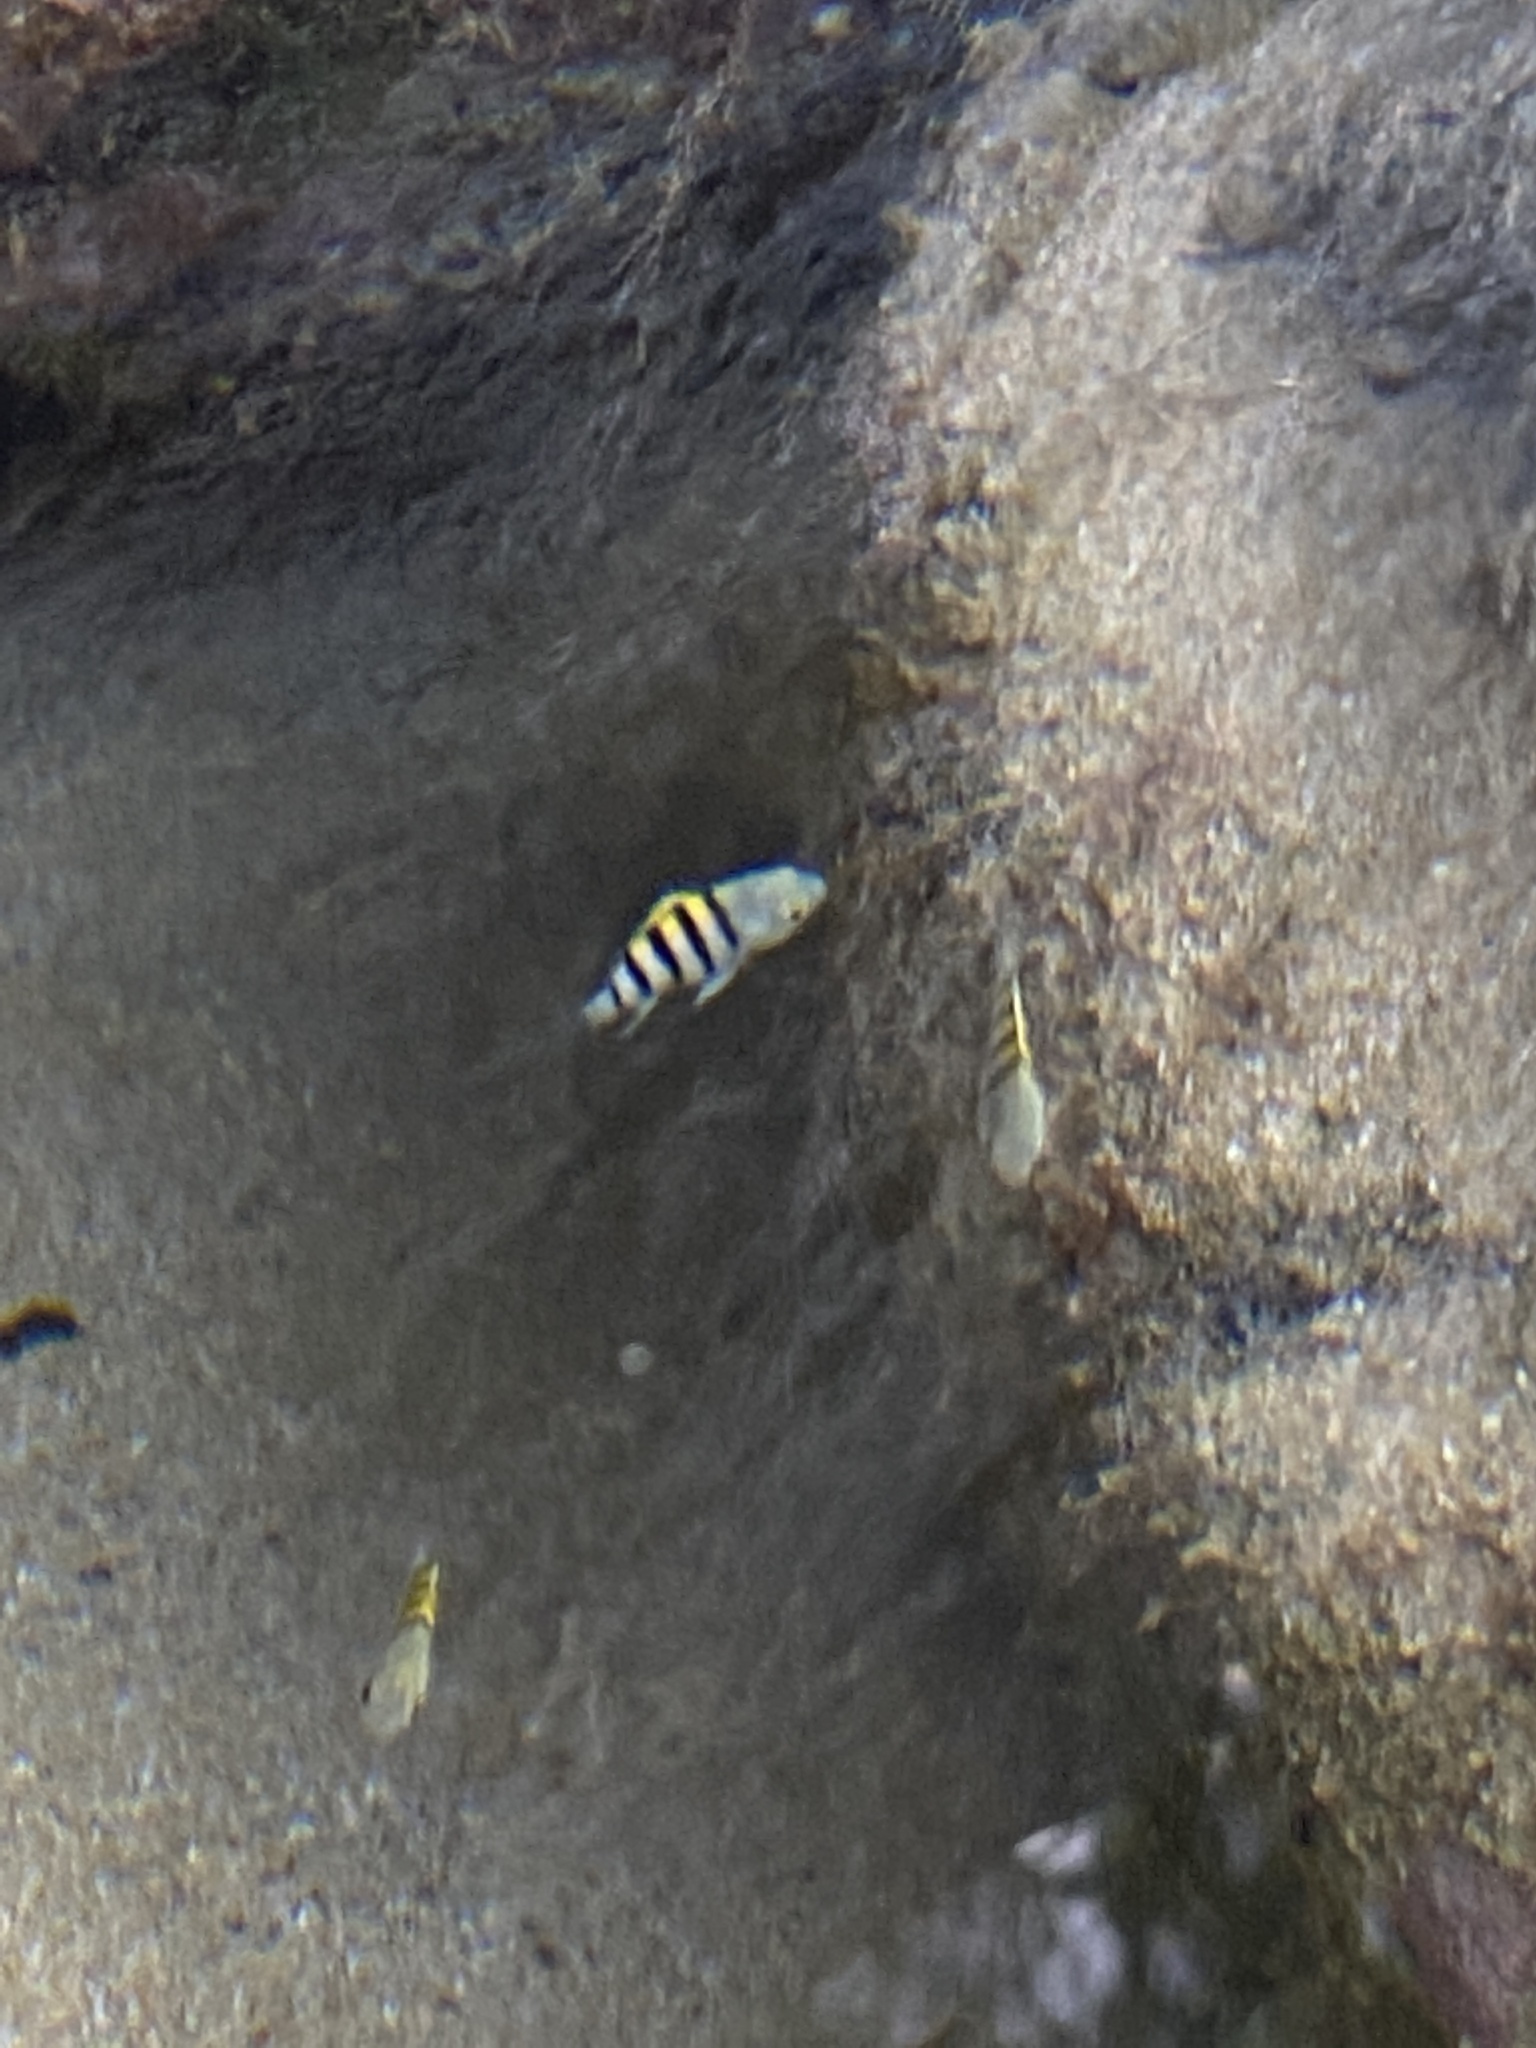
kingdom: Animalia
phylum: Chordata
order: Perciformes
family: Pomacentridae
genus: Abudefduf
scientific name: Abudefduf saxatilis
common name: Sergeant major
